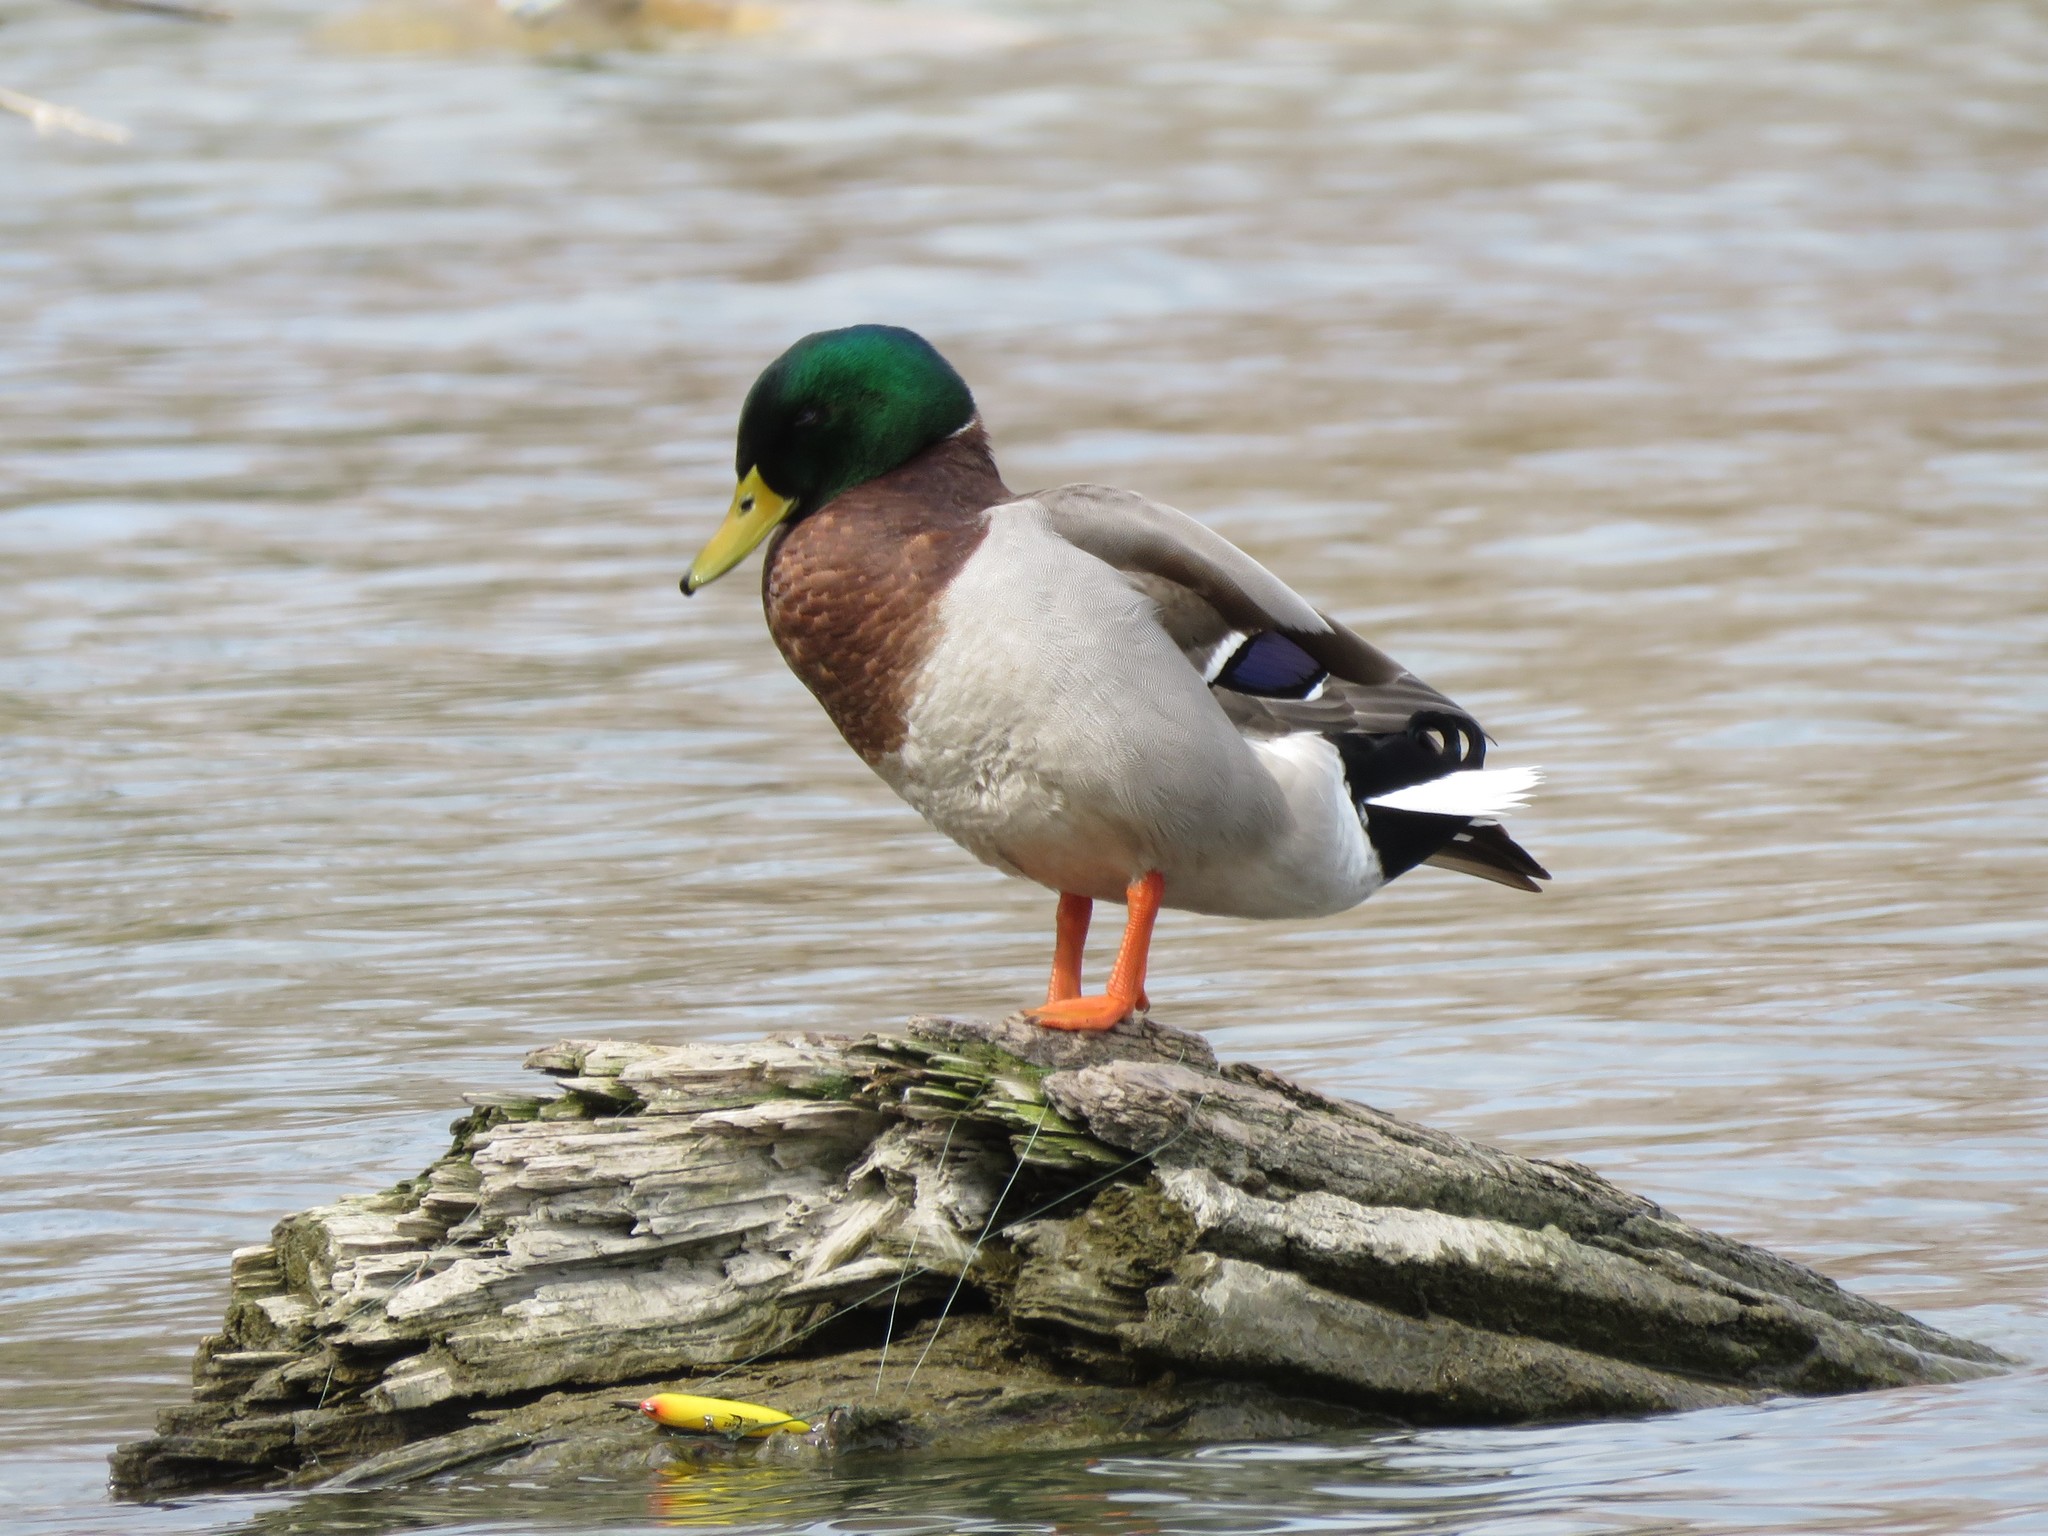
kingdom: Animalia
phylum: Chordata
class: Aves
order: Anseriformes
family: Anatidae
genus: Anas
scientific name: Anas platyrhynchos
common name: Mallard
